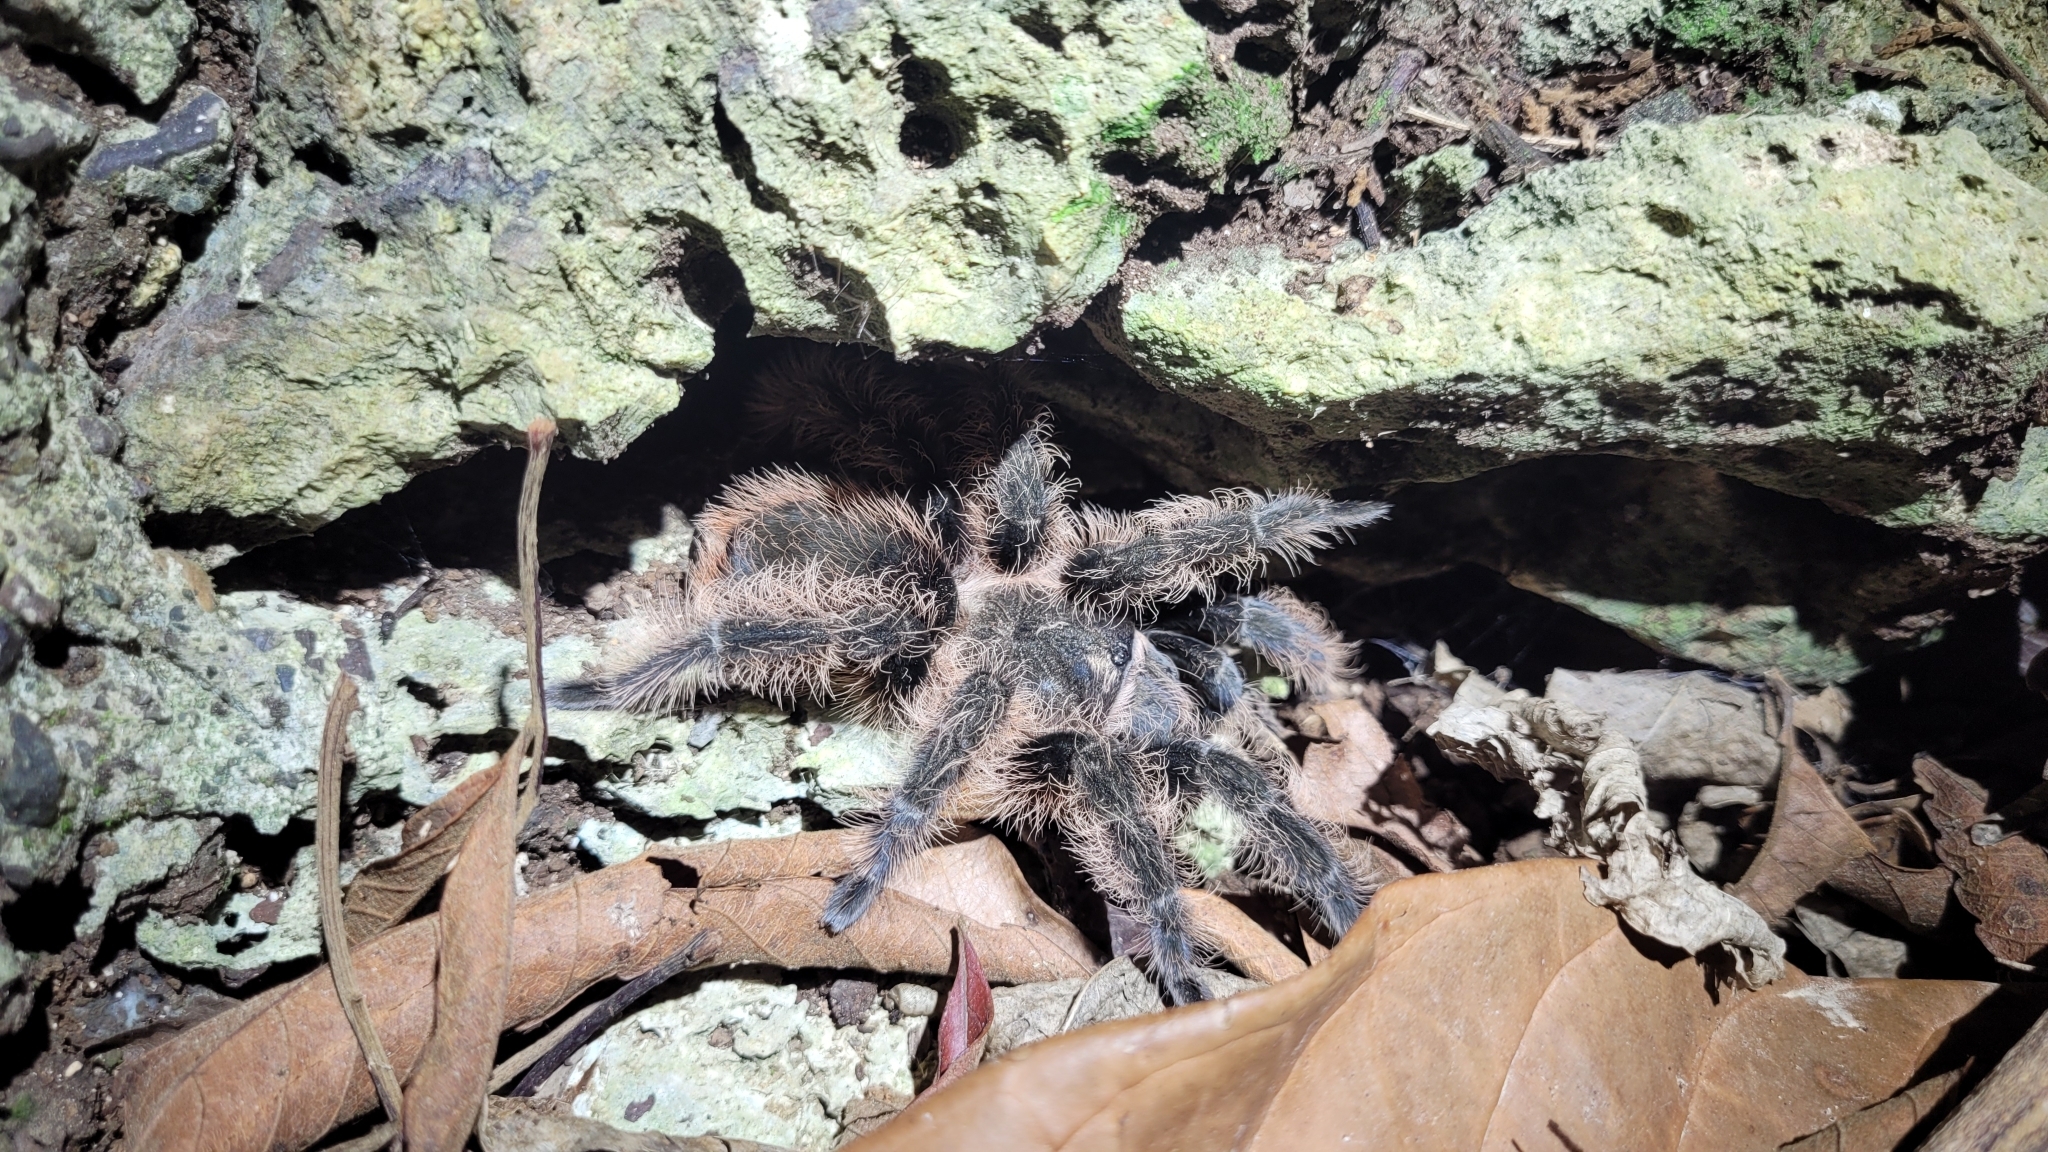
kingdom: Animalia
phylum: Arthropoda
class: Arachnida
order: Araneae
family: Theraphosidae
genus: Tliltocatl
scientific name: Tliltocatl albopilosus
